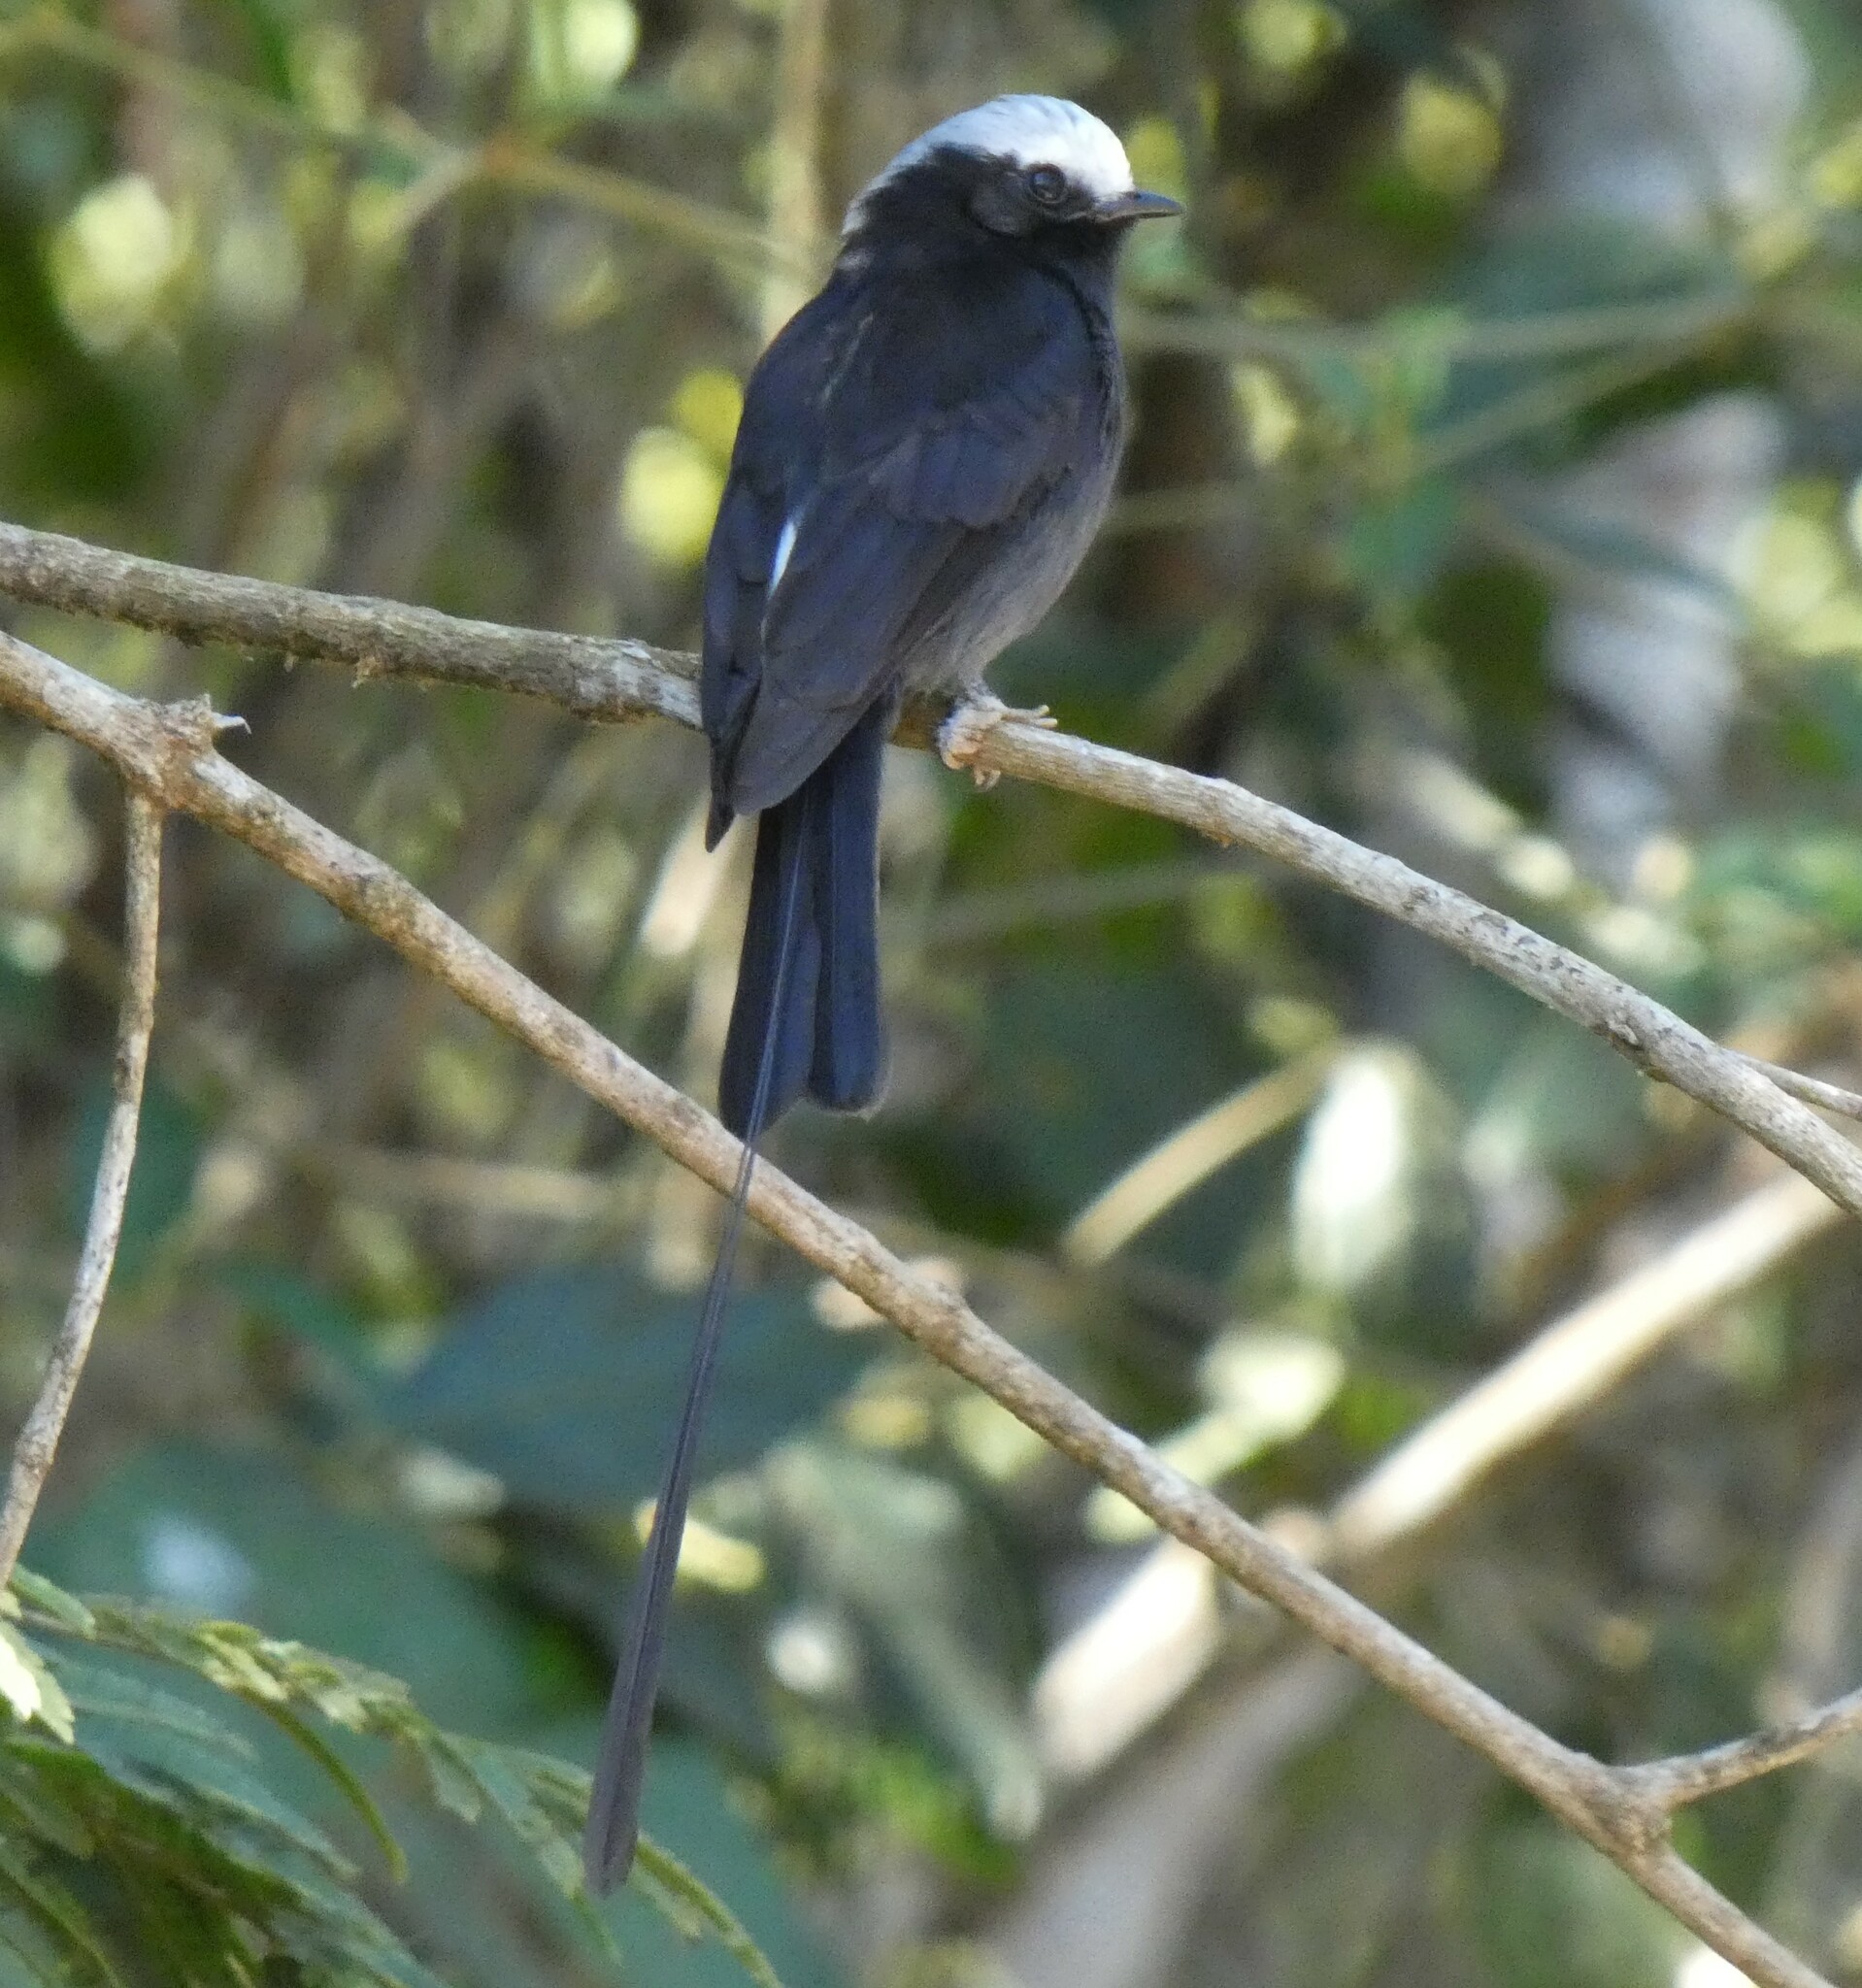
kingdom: Animalia
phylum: Chordata
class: Aves
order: Passeriformes
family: Tyrannidae
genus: Colonia
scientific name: Colonia colonus
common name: Long-tailed tyrant
